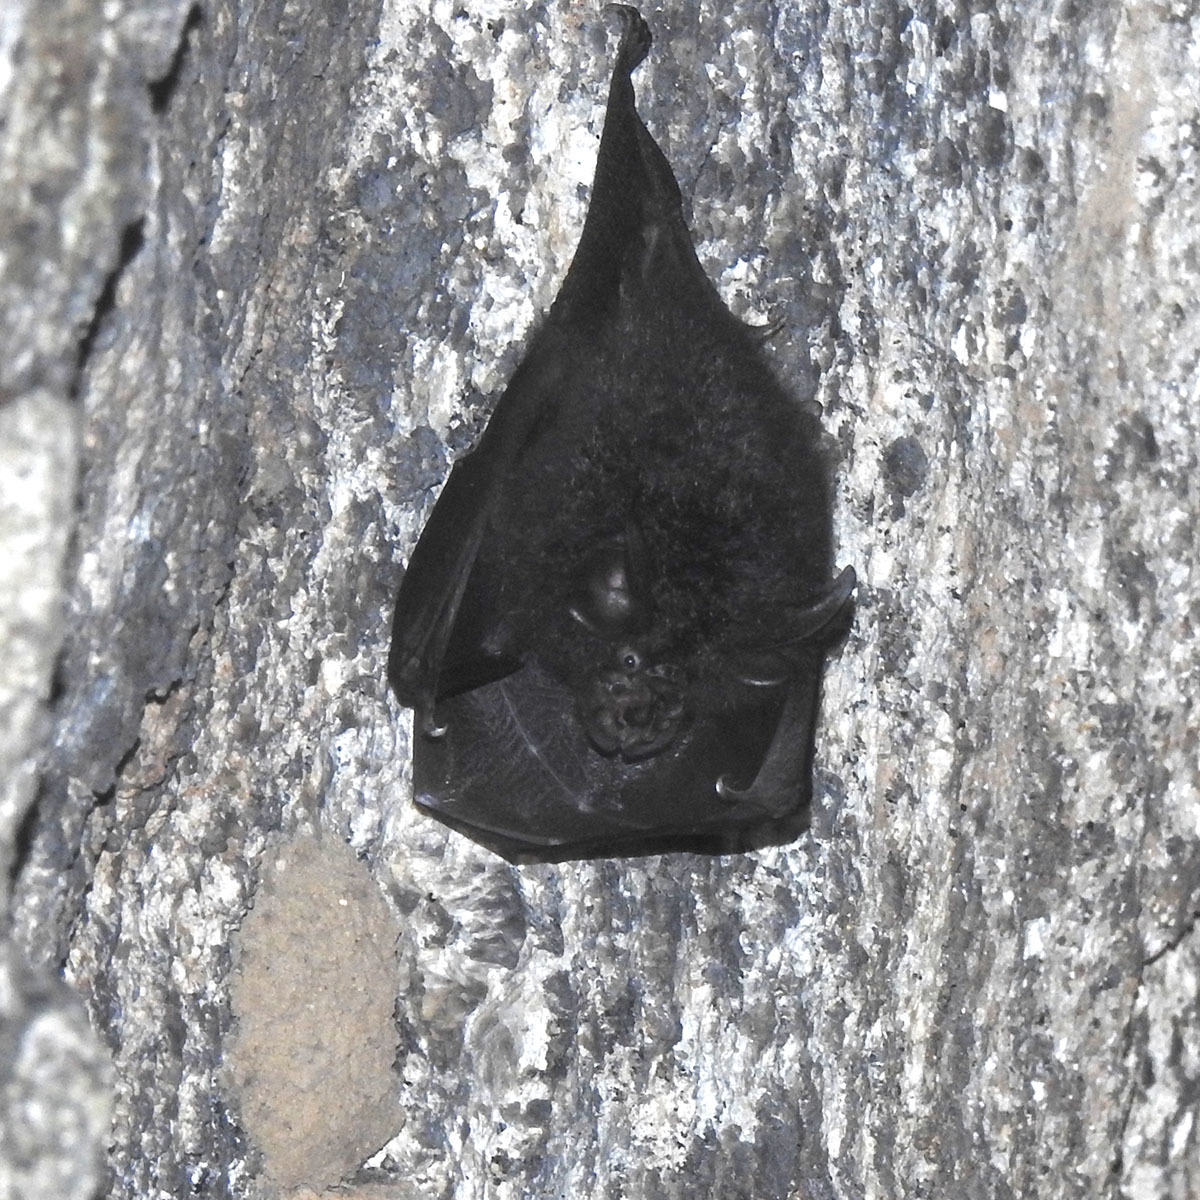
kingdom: Animalia
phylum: Chordata
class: Mammalia
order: Chiroptera
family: Rhinolophidae
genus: Rhinolophus
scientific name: Rhinolophus beddomei
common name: Bedomme's horseshoe bat
